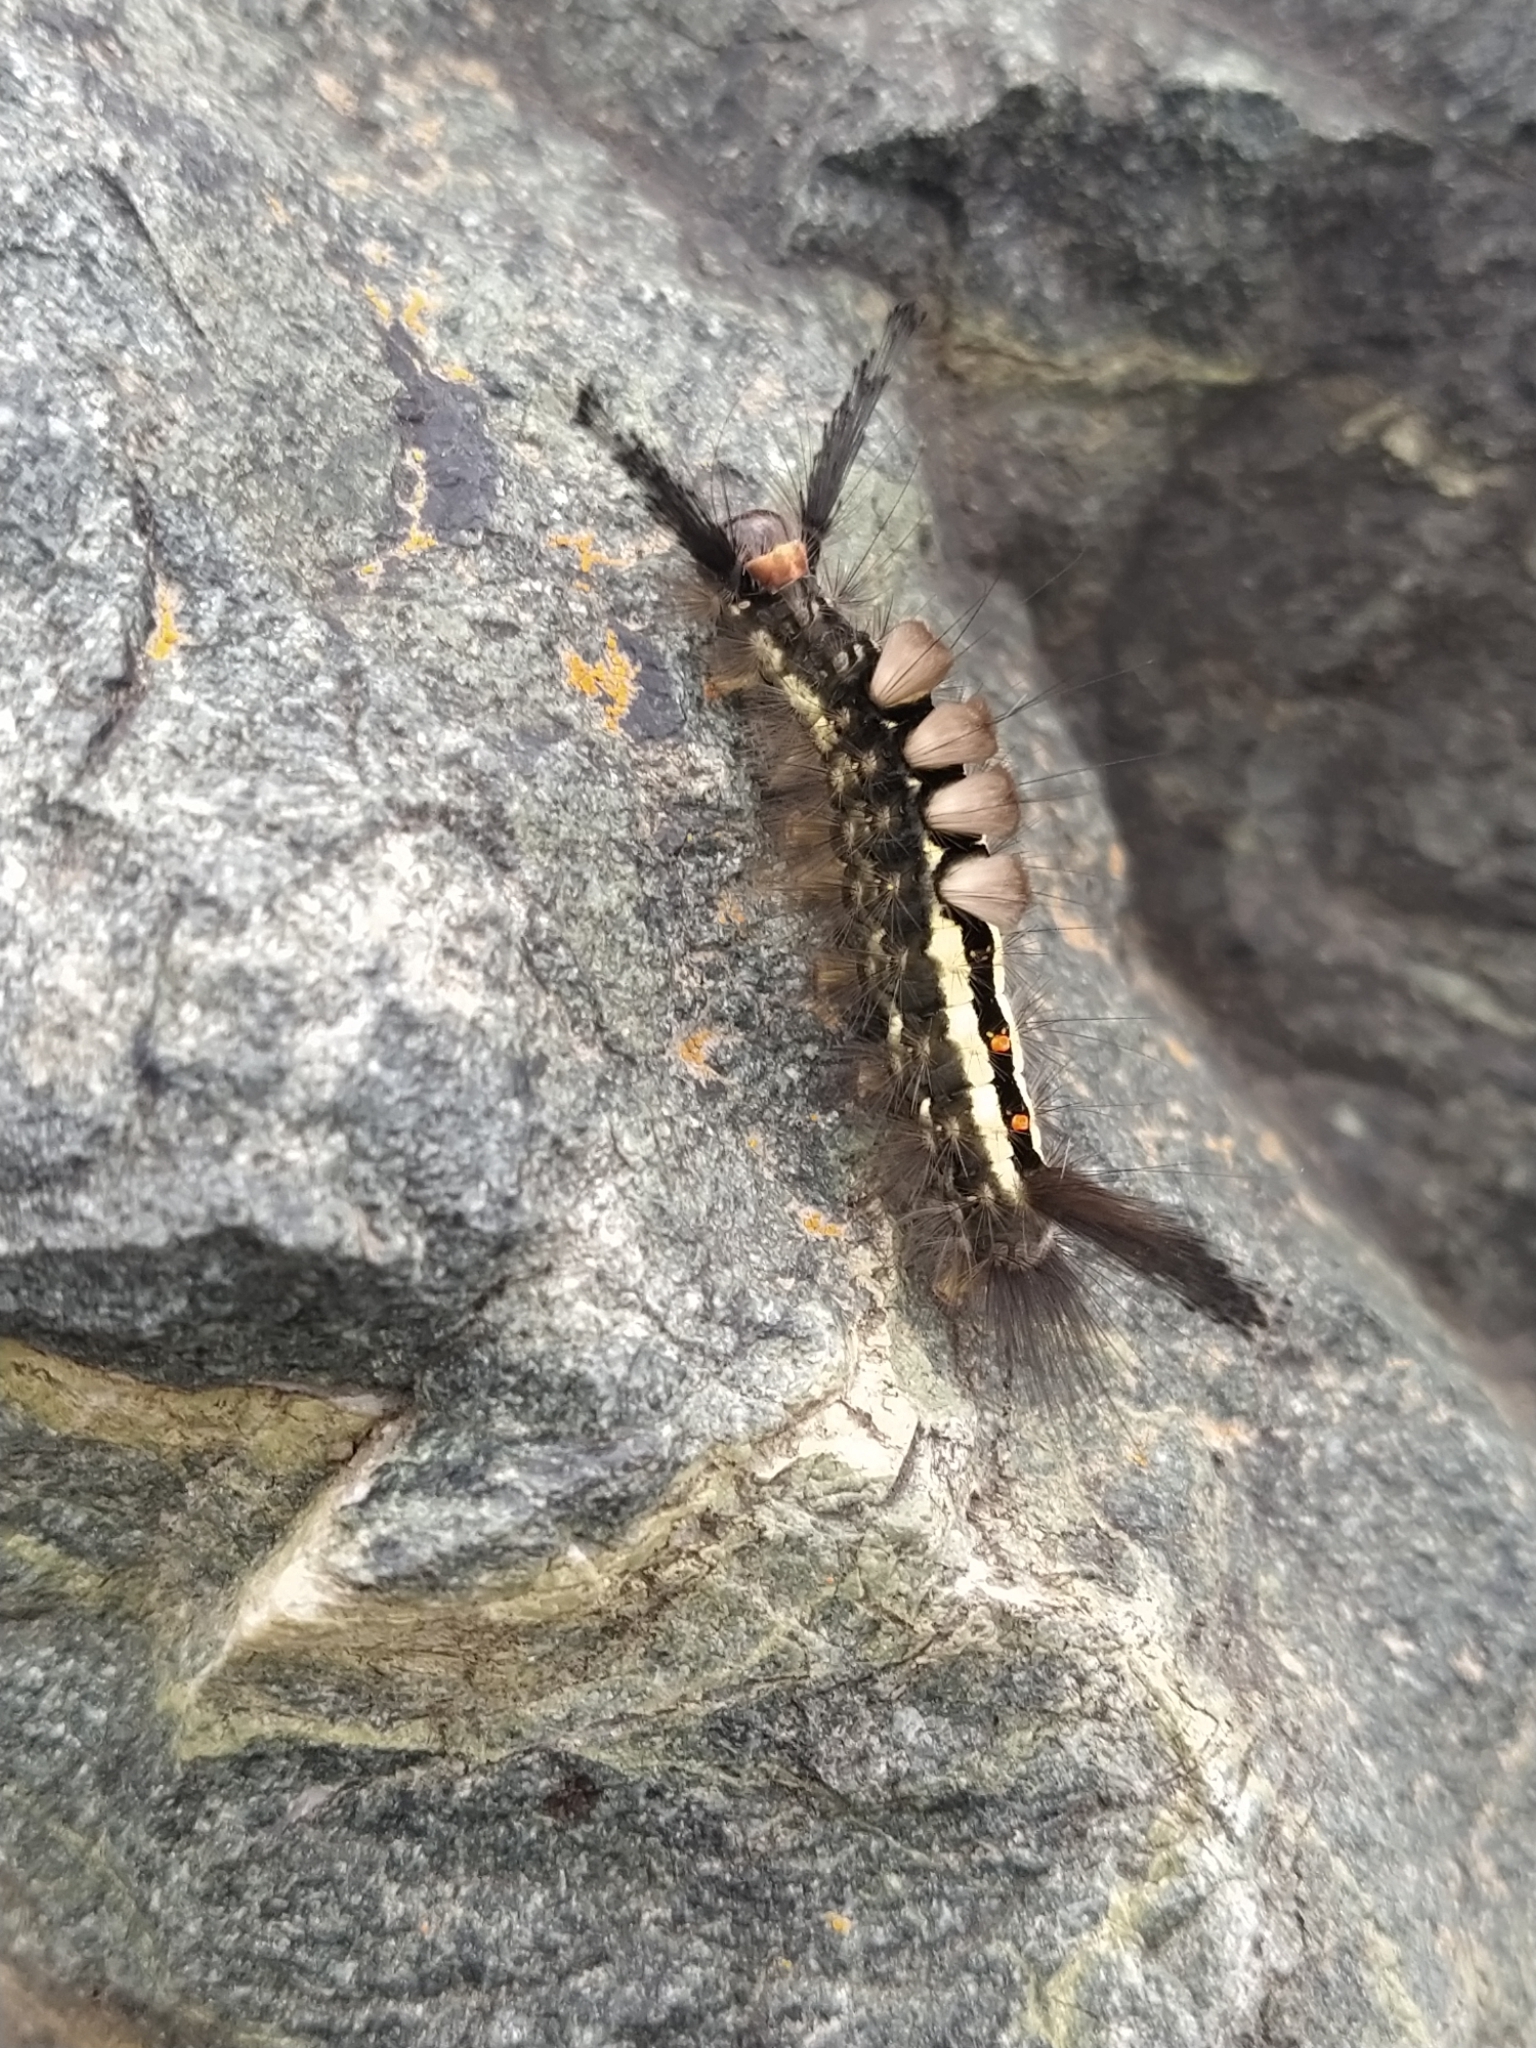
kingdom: Animalia
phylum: Arthropoda
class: Insecta
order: Lepidoptera
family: Erebidae
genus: Orgyia
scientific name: Orgyia leucostigma
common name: White-marked tussock moth
